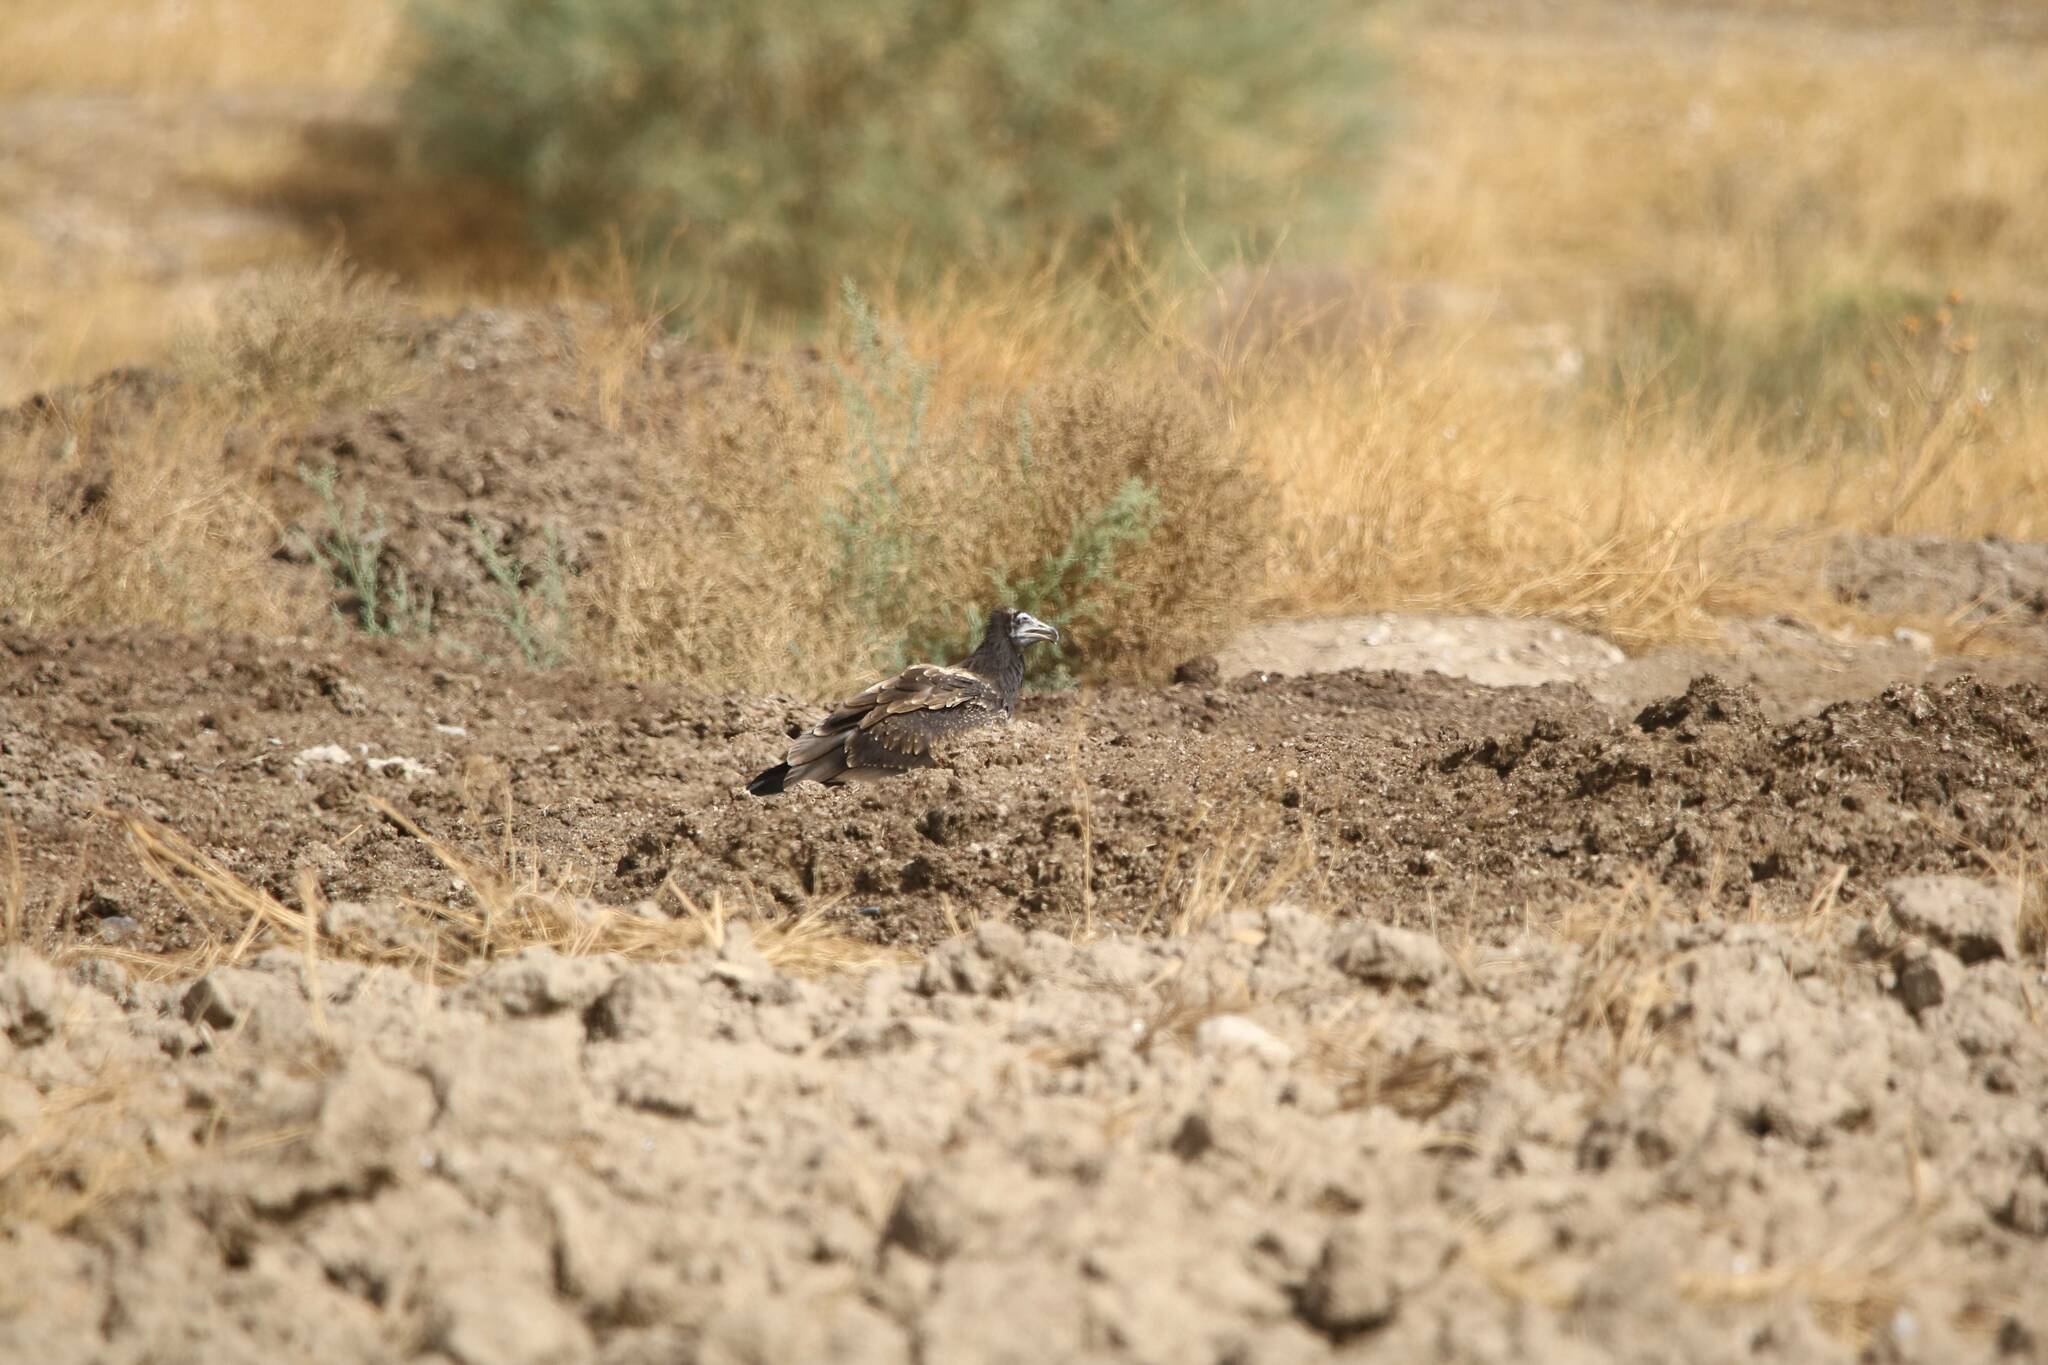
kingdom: Animalia
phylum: Chordata
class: Aves
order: Accipitriformes
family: Accipitridae
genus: Neophron
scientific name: Neophron percnopterus
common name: Egyptian vulture
